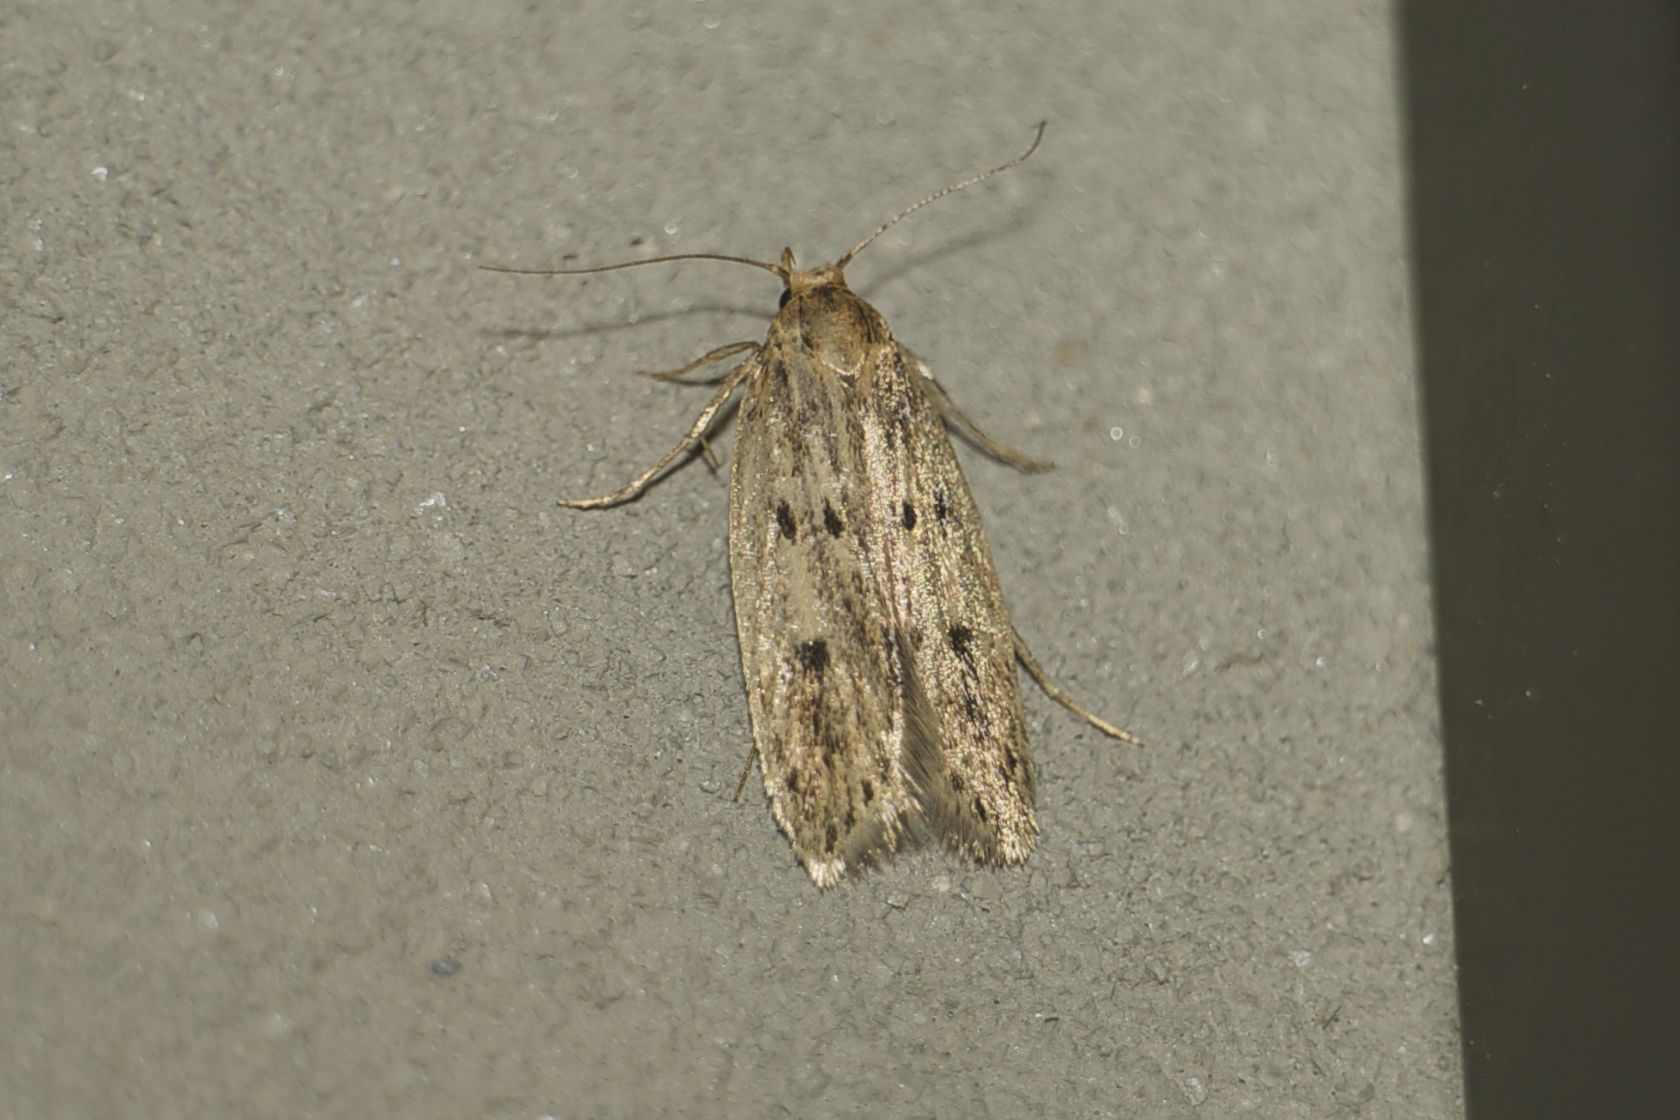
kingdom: Animalia
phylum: Arthropoda
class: Insecta
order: Lepidoptera
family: Oecophoridae
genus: Hofmannophila
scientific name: Hofmannophila pseudospretella
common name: Brown house moth
